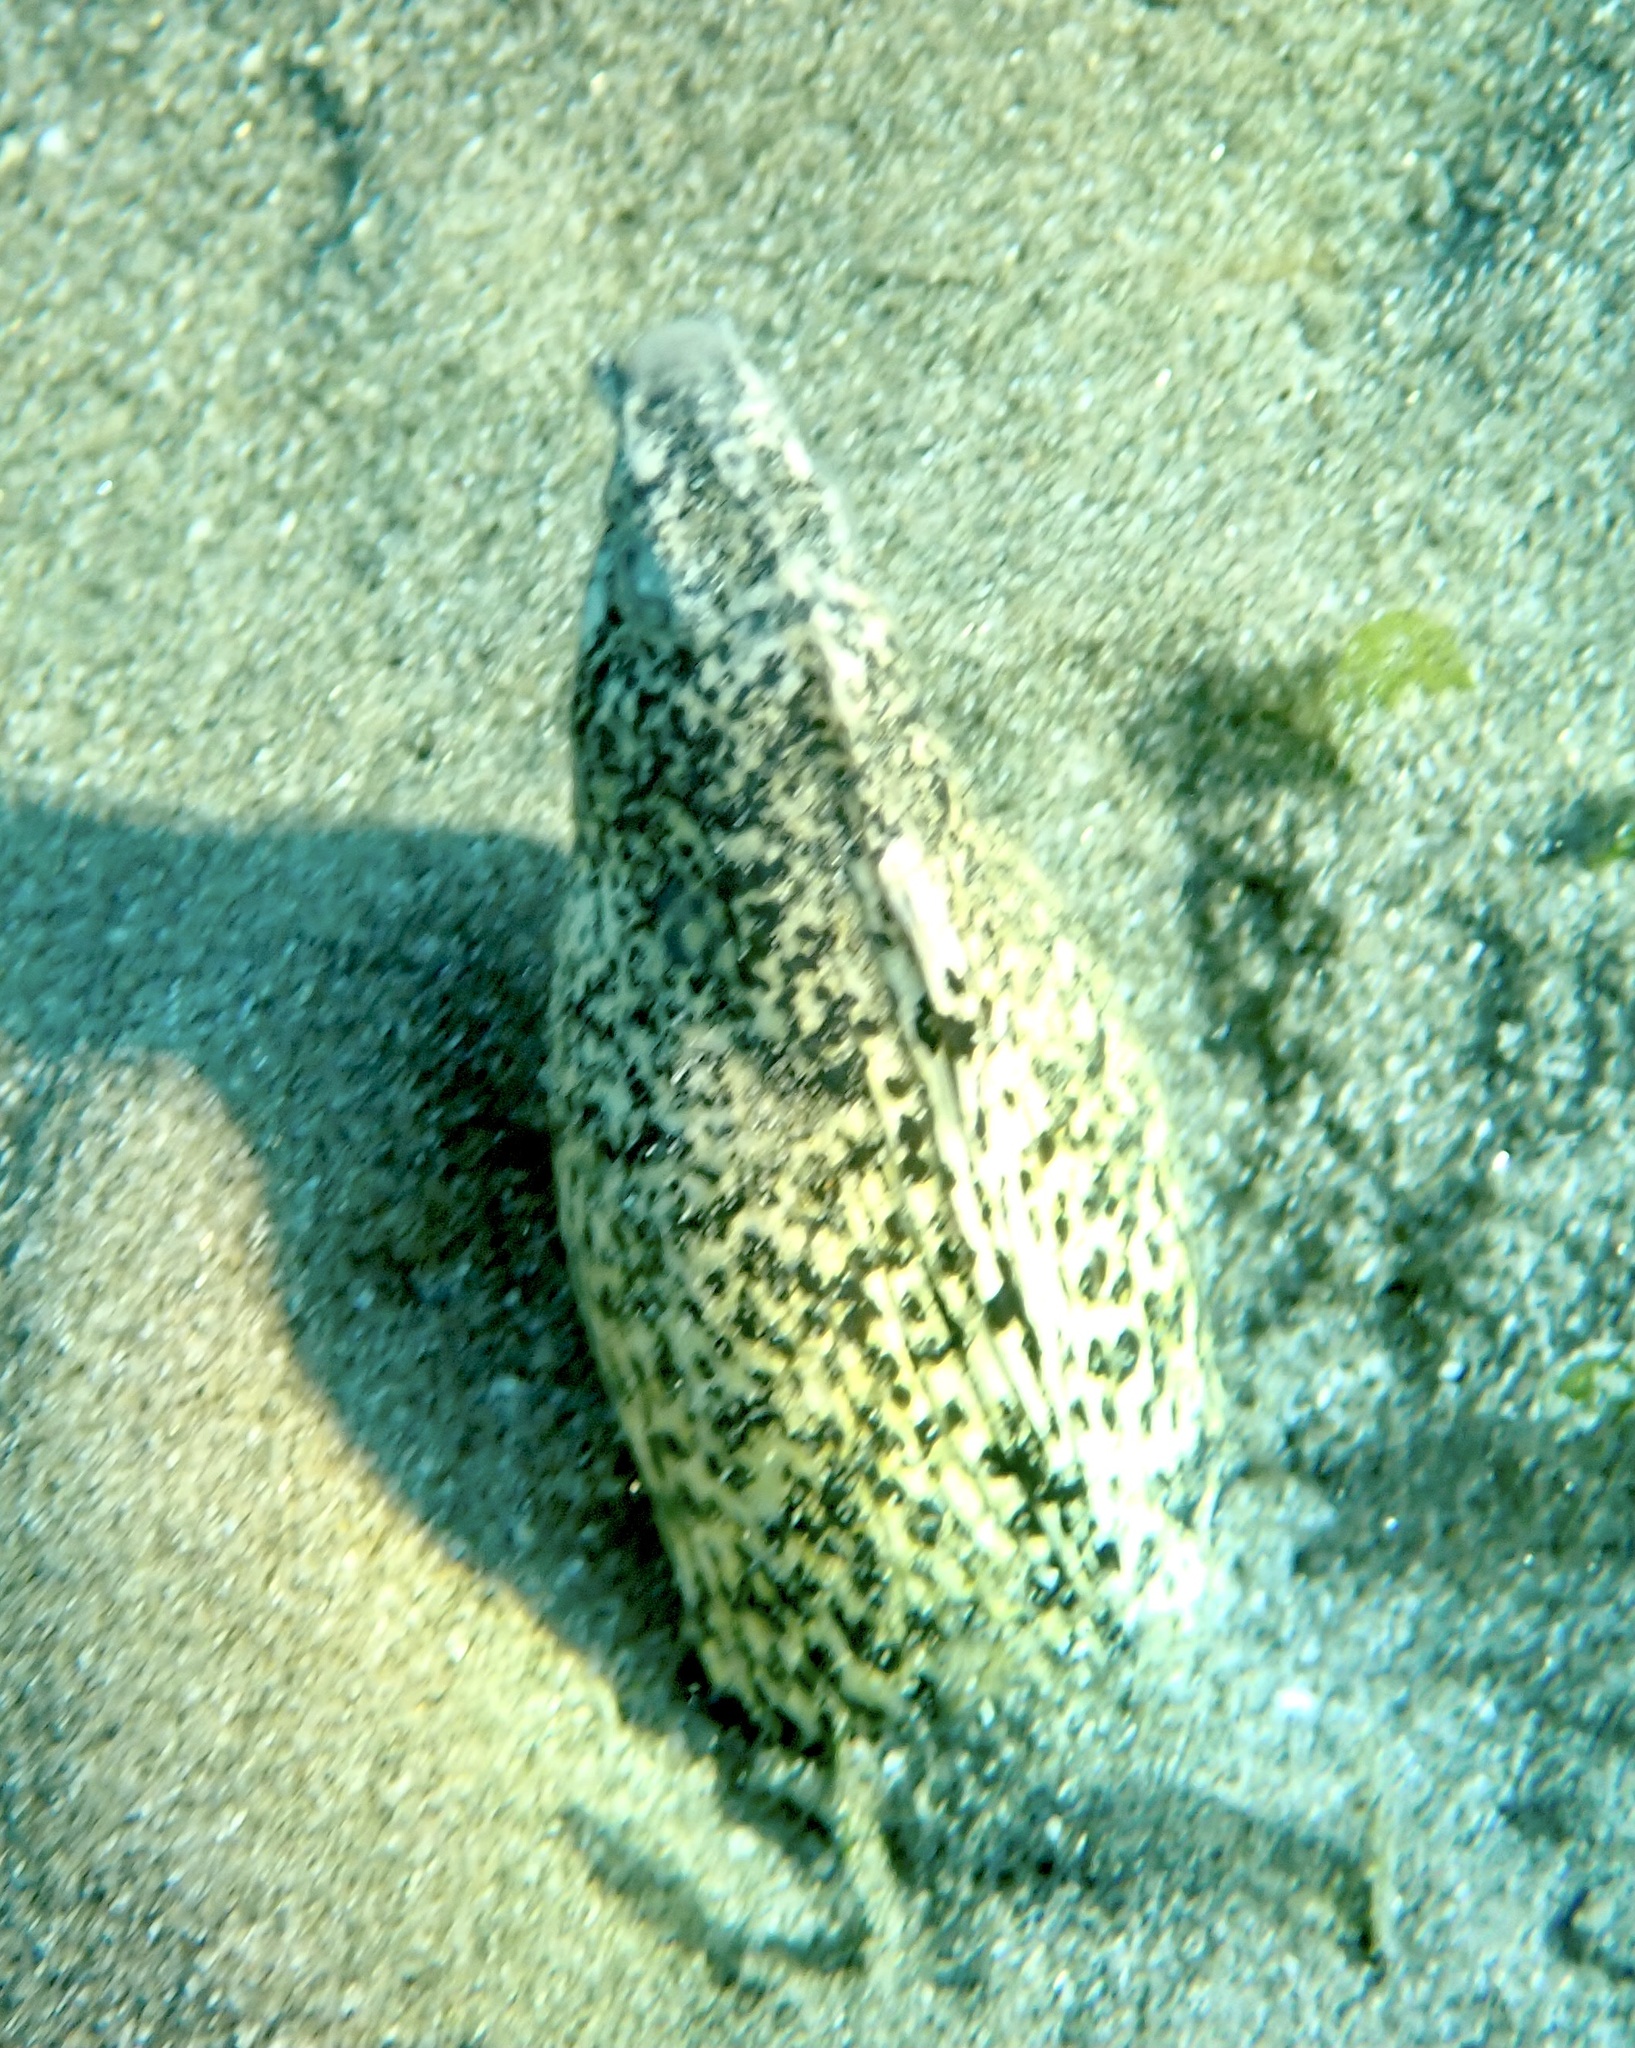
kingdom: Animalia
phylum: Chordata
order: Anguilliformes
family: Ophichthidae
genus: Callechelys
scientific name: Callechelys marmorata
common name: Marbled snake eel
